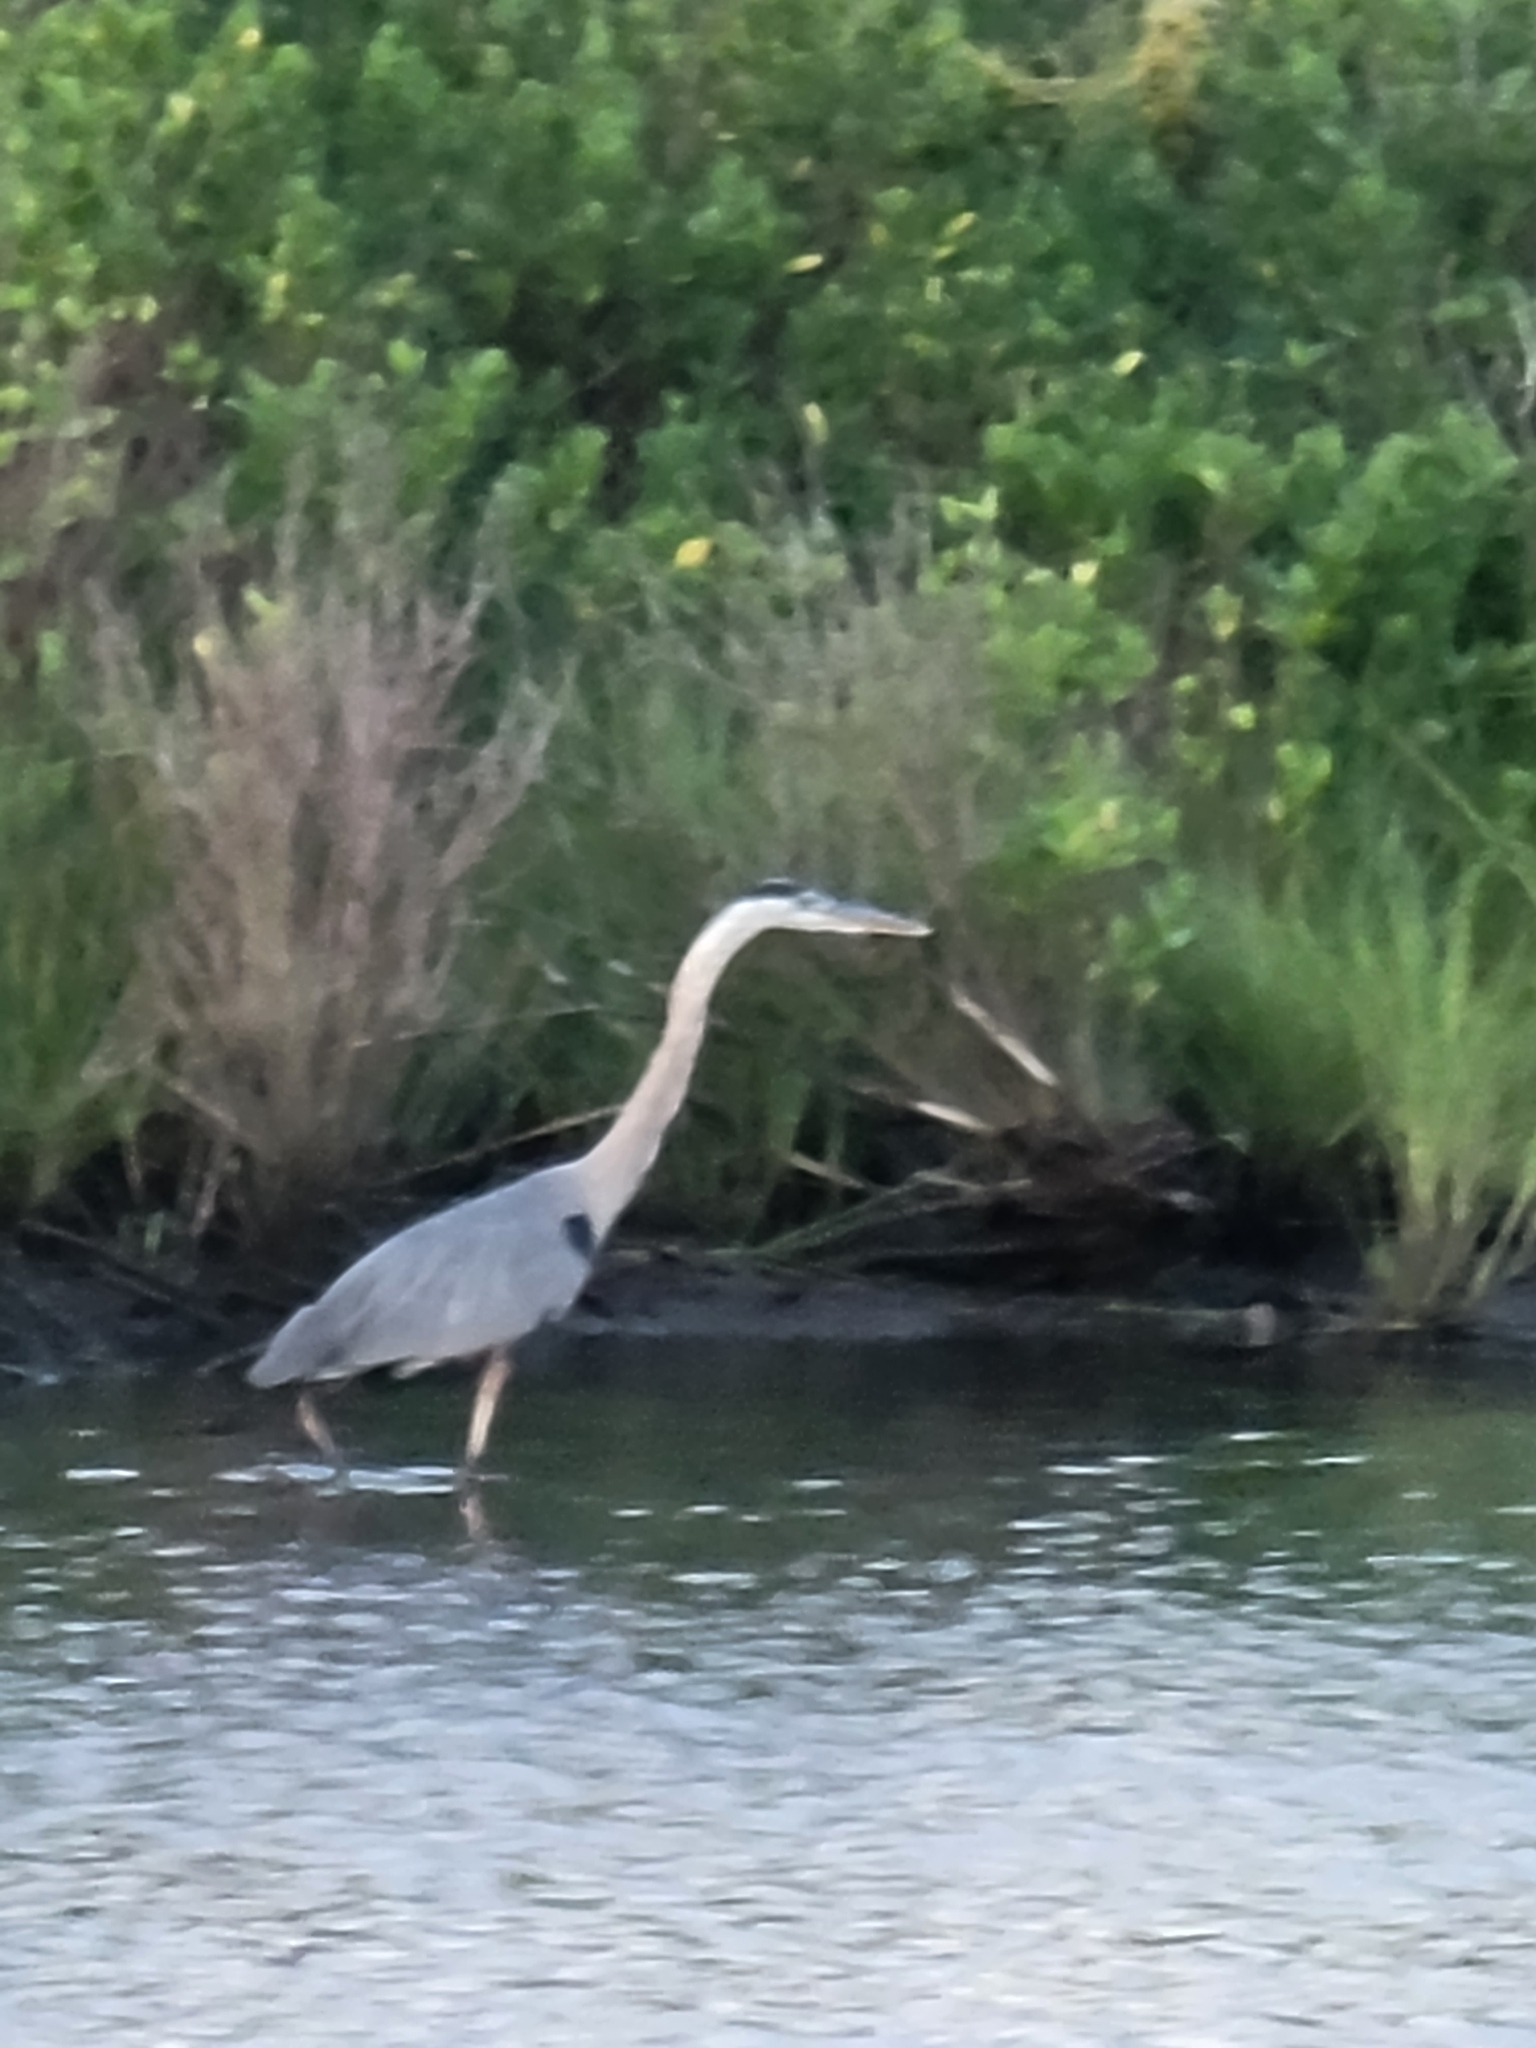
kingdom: Animalia
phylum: Chordata
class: Aves
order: Pelecaniformes
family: Ardeidae
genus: Ardea
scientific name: Ardea herodias
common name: Great blue heron
